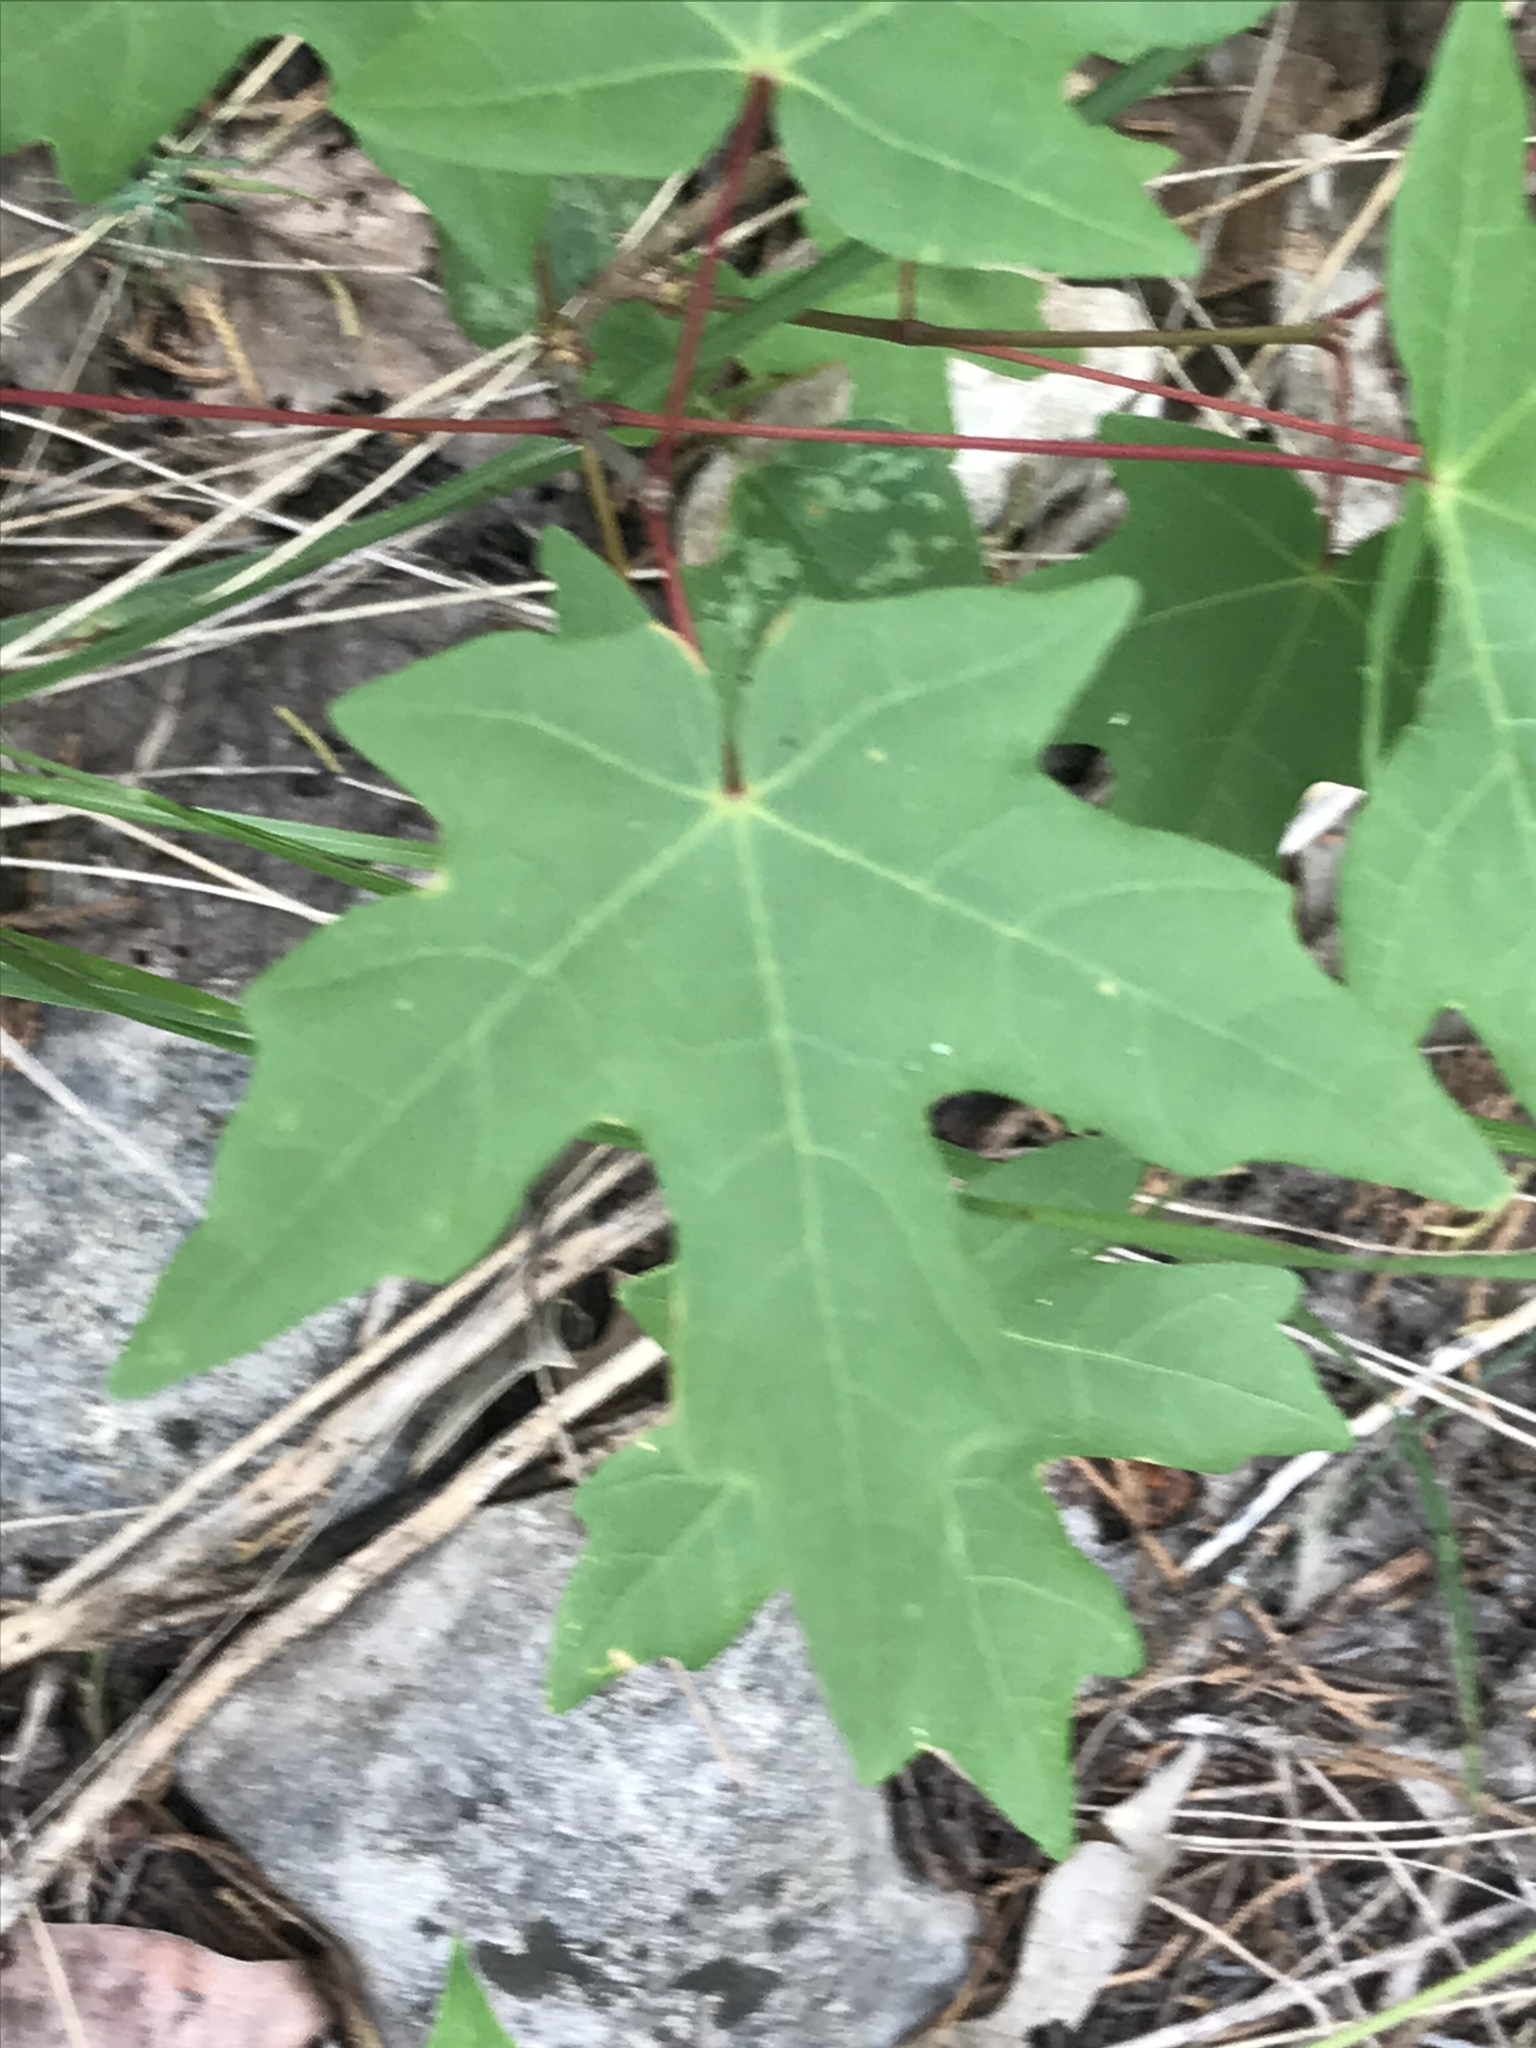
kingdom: Plantae
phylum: Tracheophyta
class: Magnoliopsida
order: Sapindales
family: Sapindaceae
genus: Acer
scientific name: Acer grandidentatum
